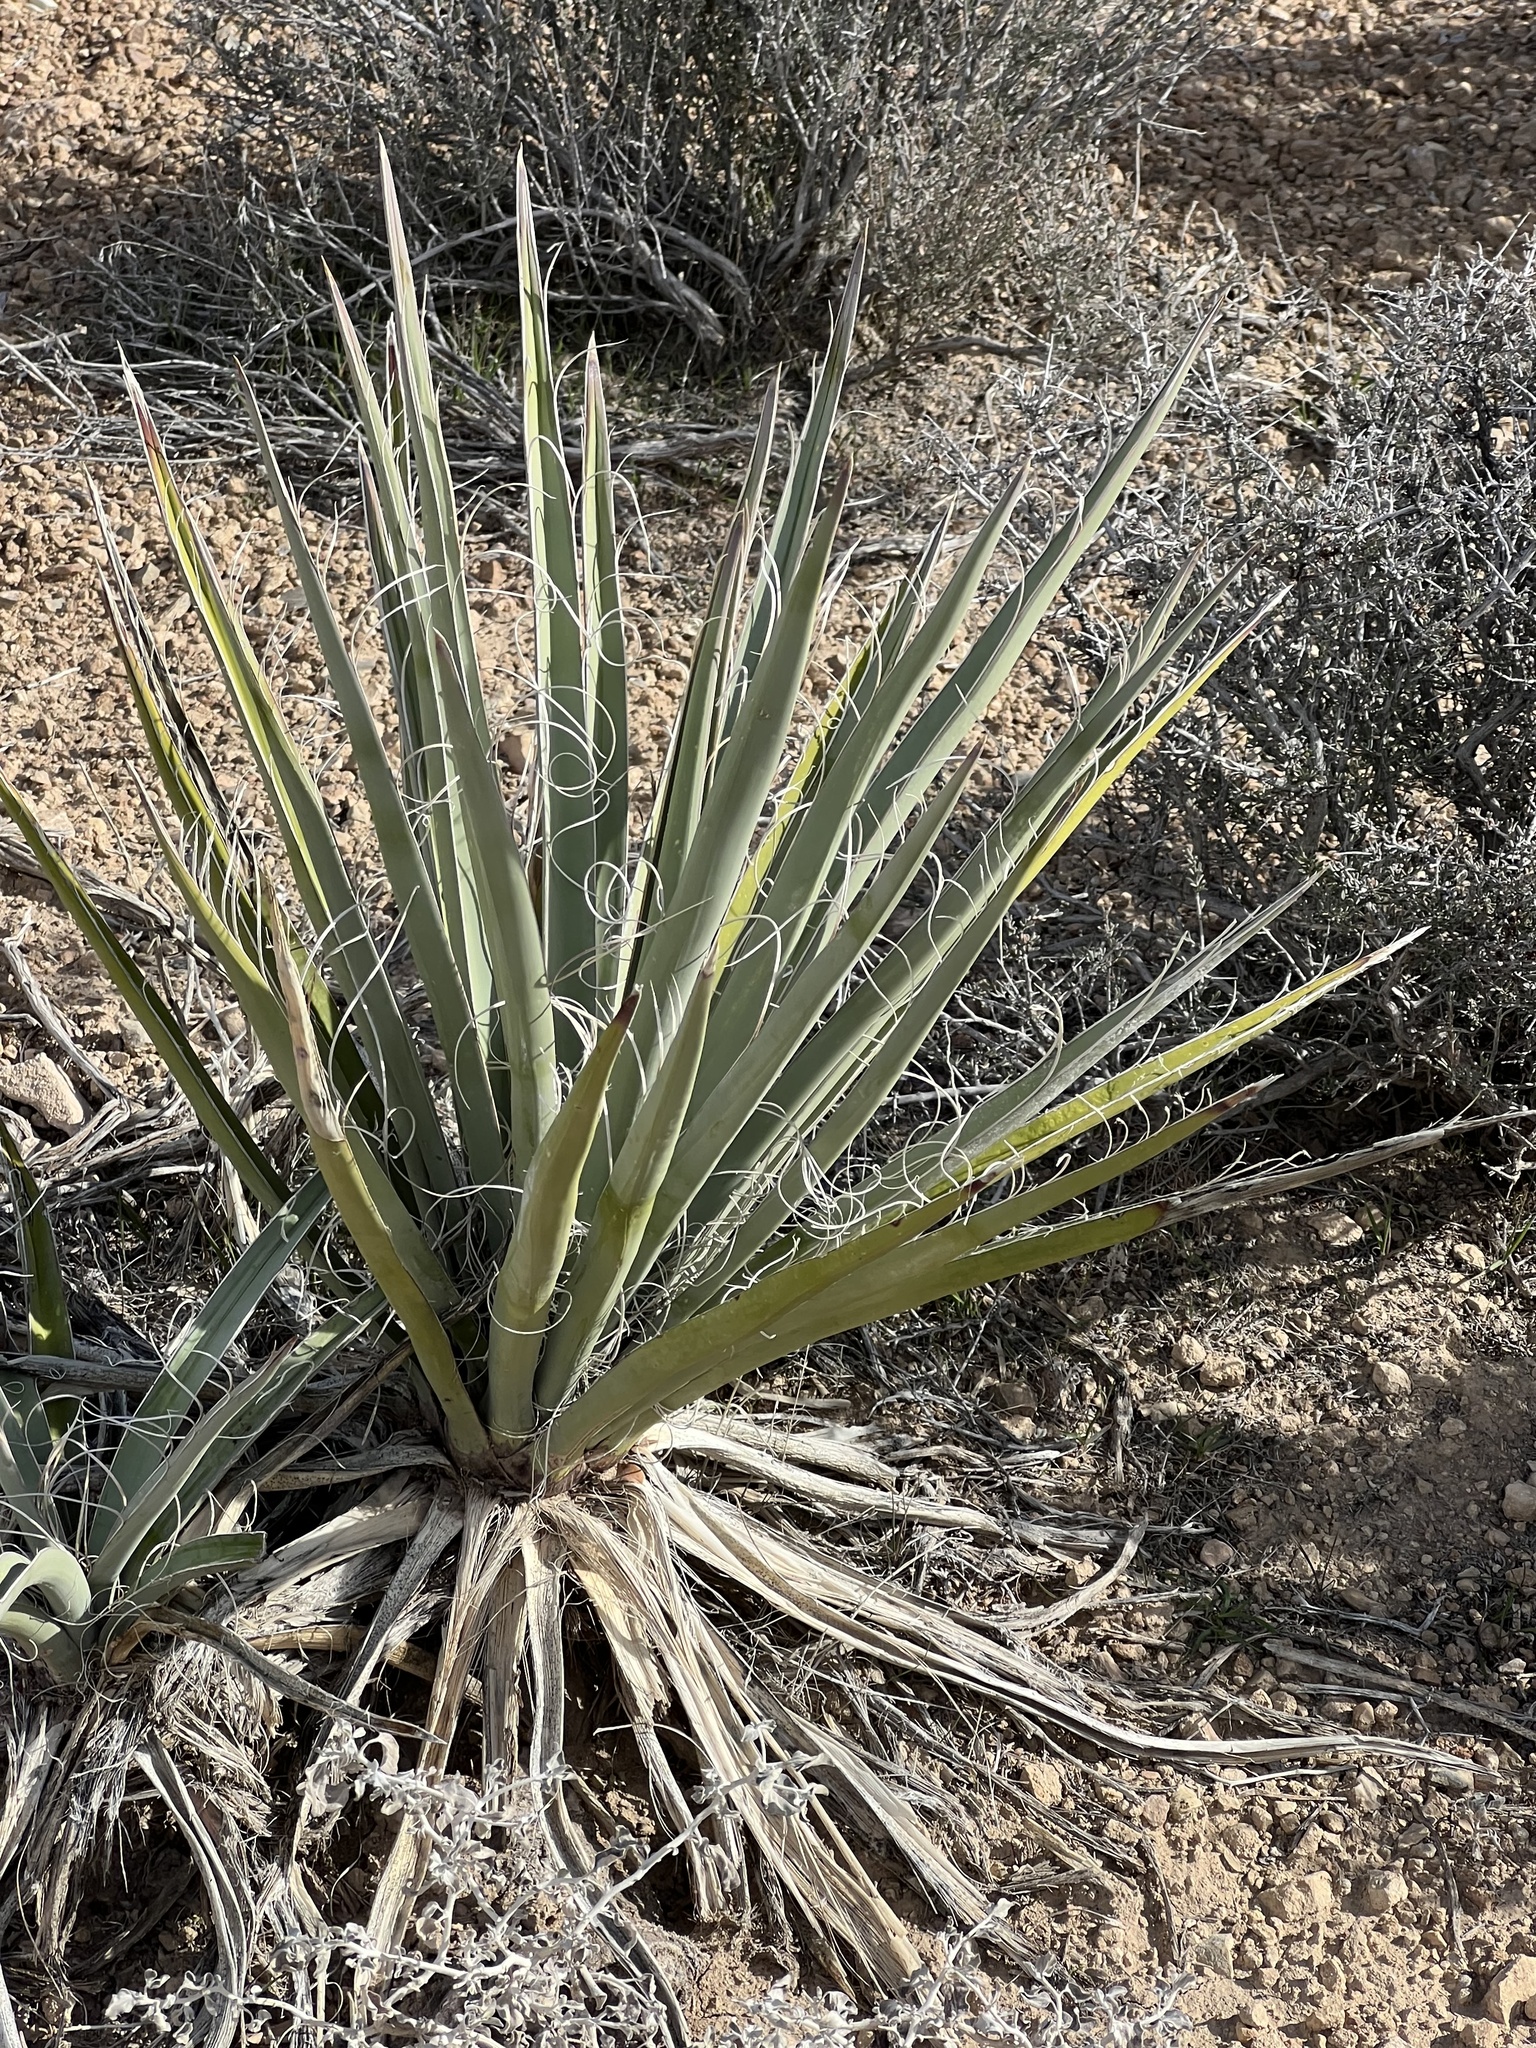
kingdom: Plantae
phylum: Tracheophyta
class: Liliopsida
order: Asparagales
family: Asparagaceae
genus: Yucca
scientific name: Yucca schidigera
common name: Mojave yucca
